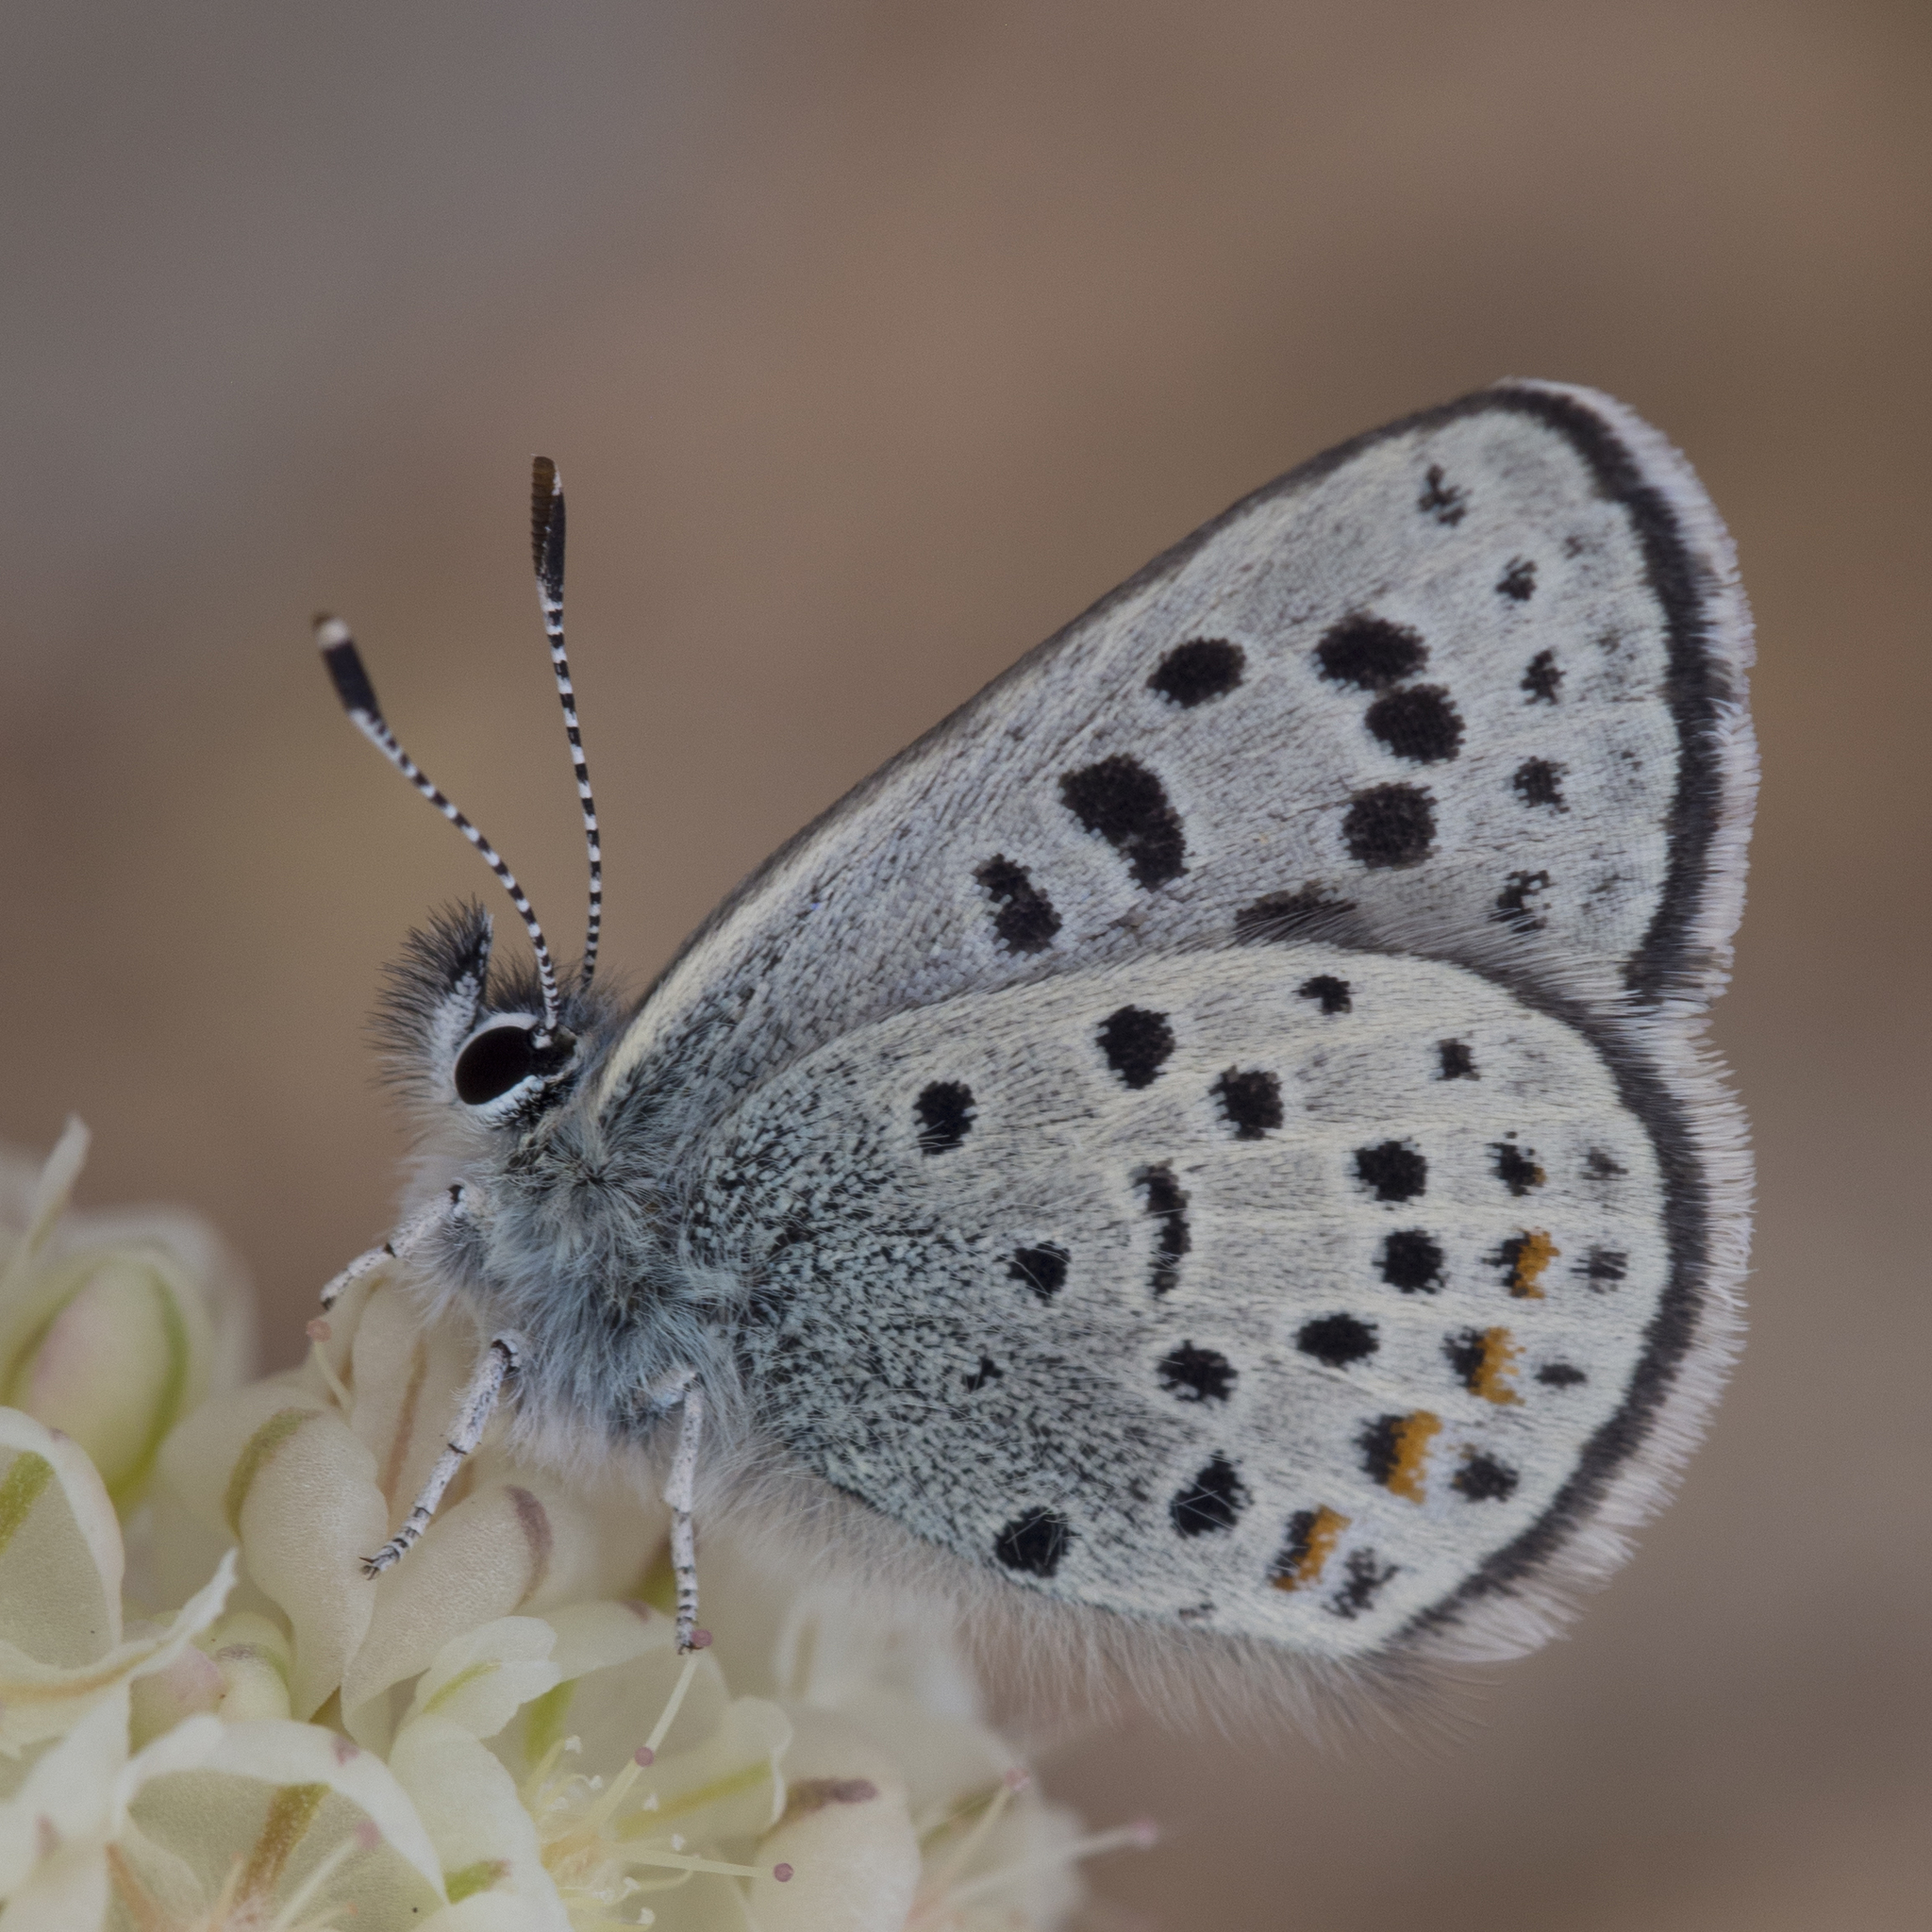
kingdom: Animalia
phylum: Arthropoda
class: Insecta
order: Lepidoptera
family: Lycaenidae
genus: Euphilotes
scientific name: Euphilotes stanfordorum
